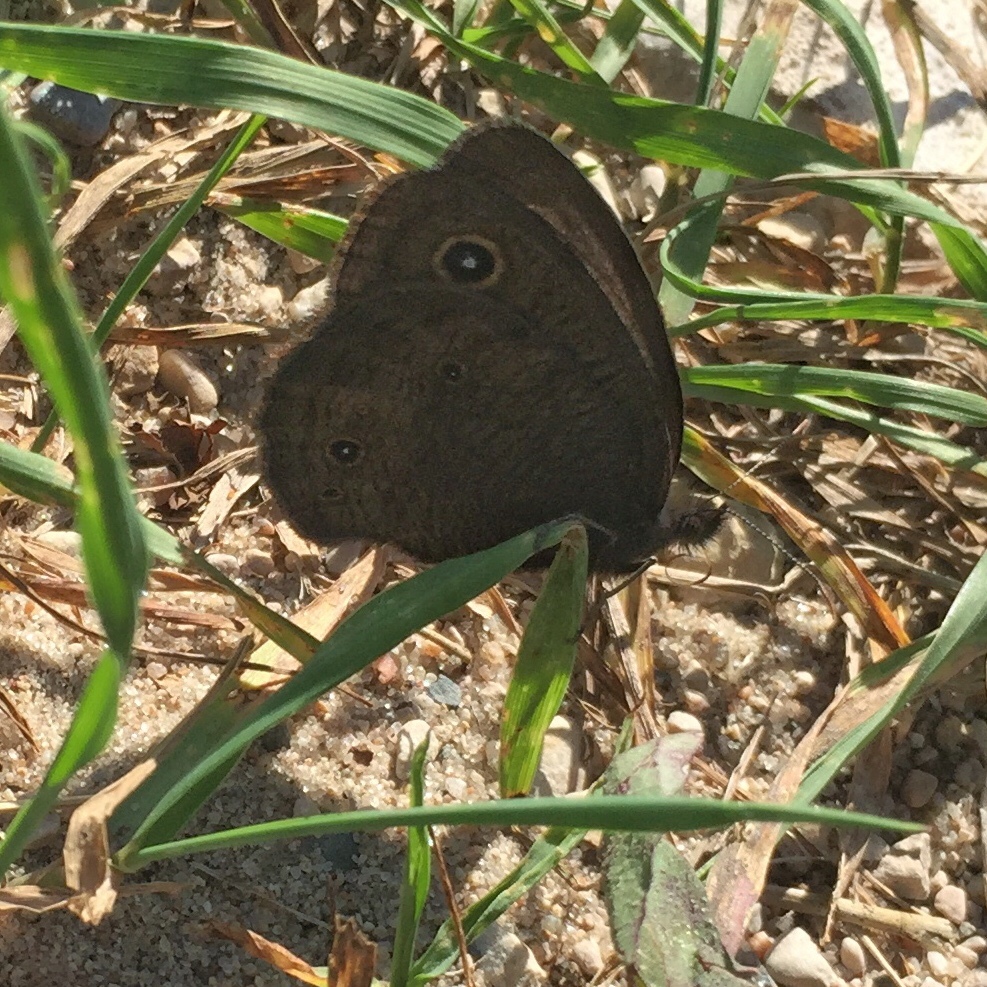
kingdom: Animalia
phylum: Arthropoda
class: Insecta
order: Lepidoptera
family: Nymphalidae
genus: Cercyonis
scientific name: Cercyonis pegala
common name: Common wood-nymph
